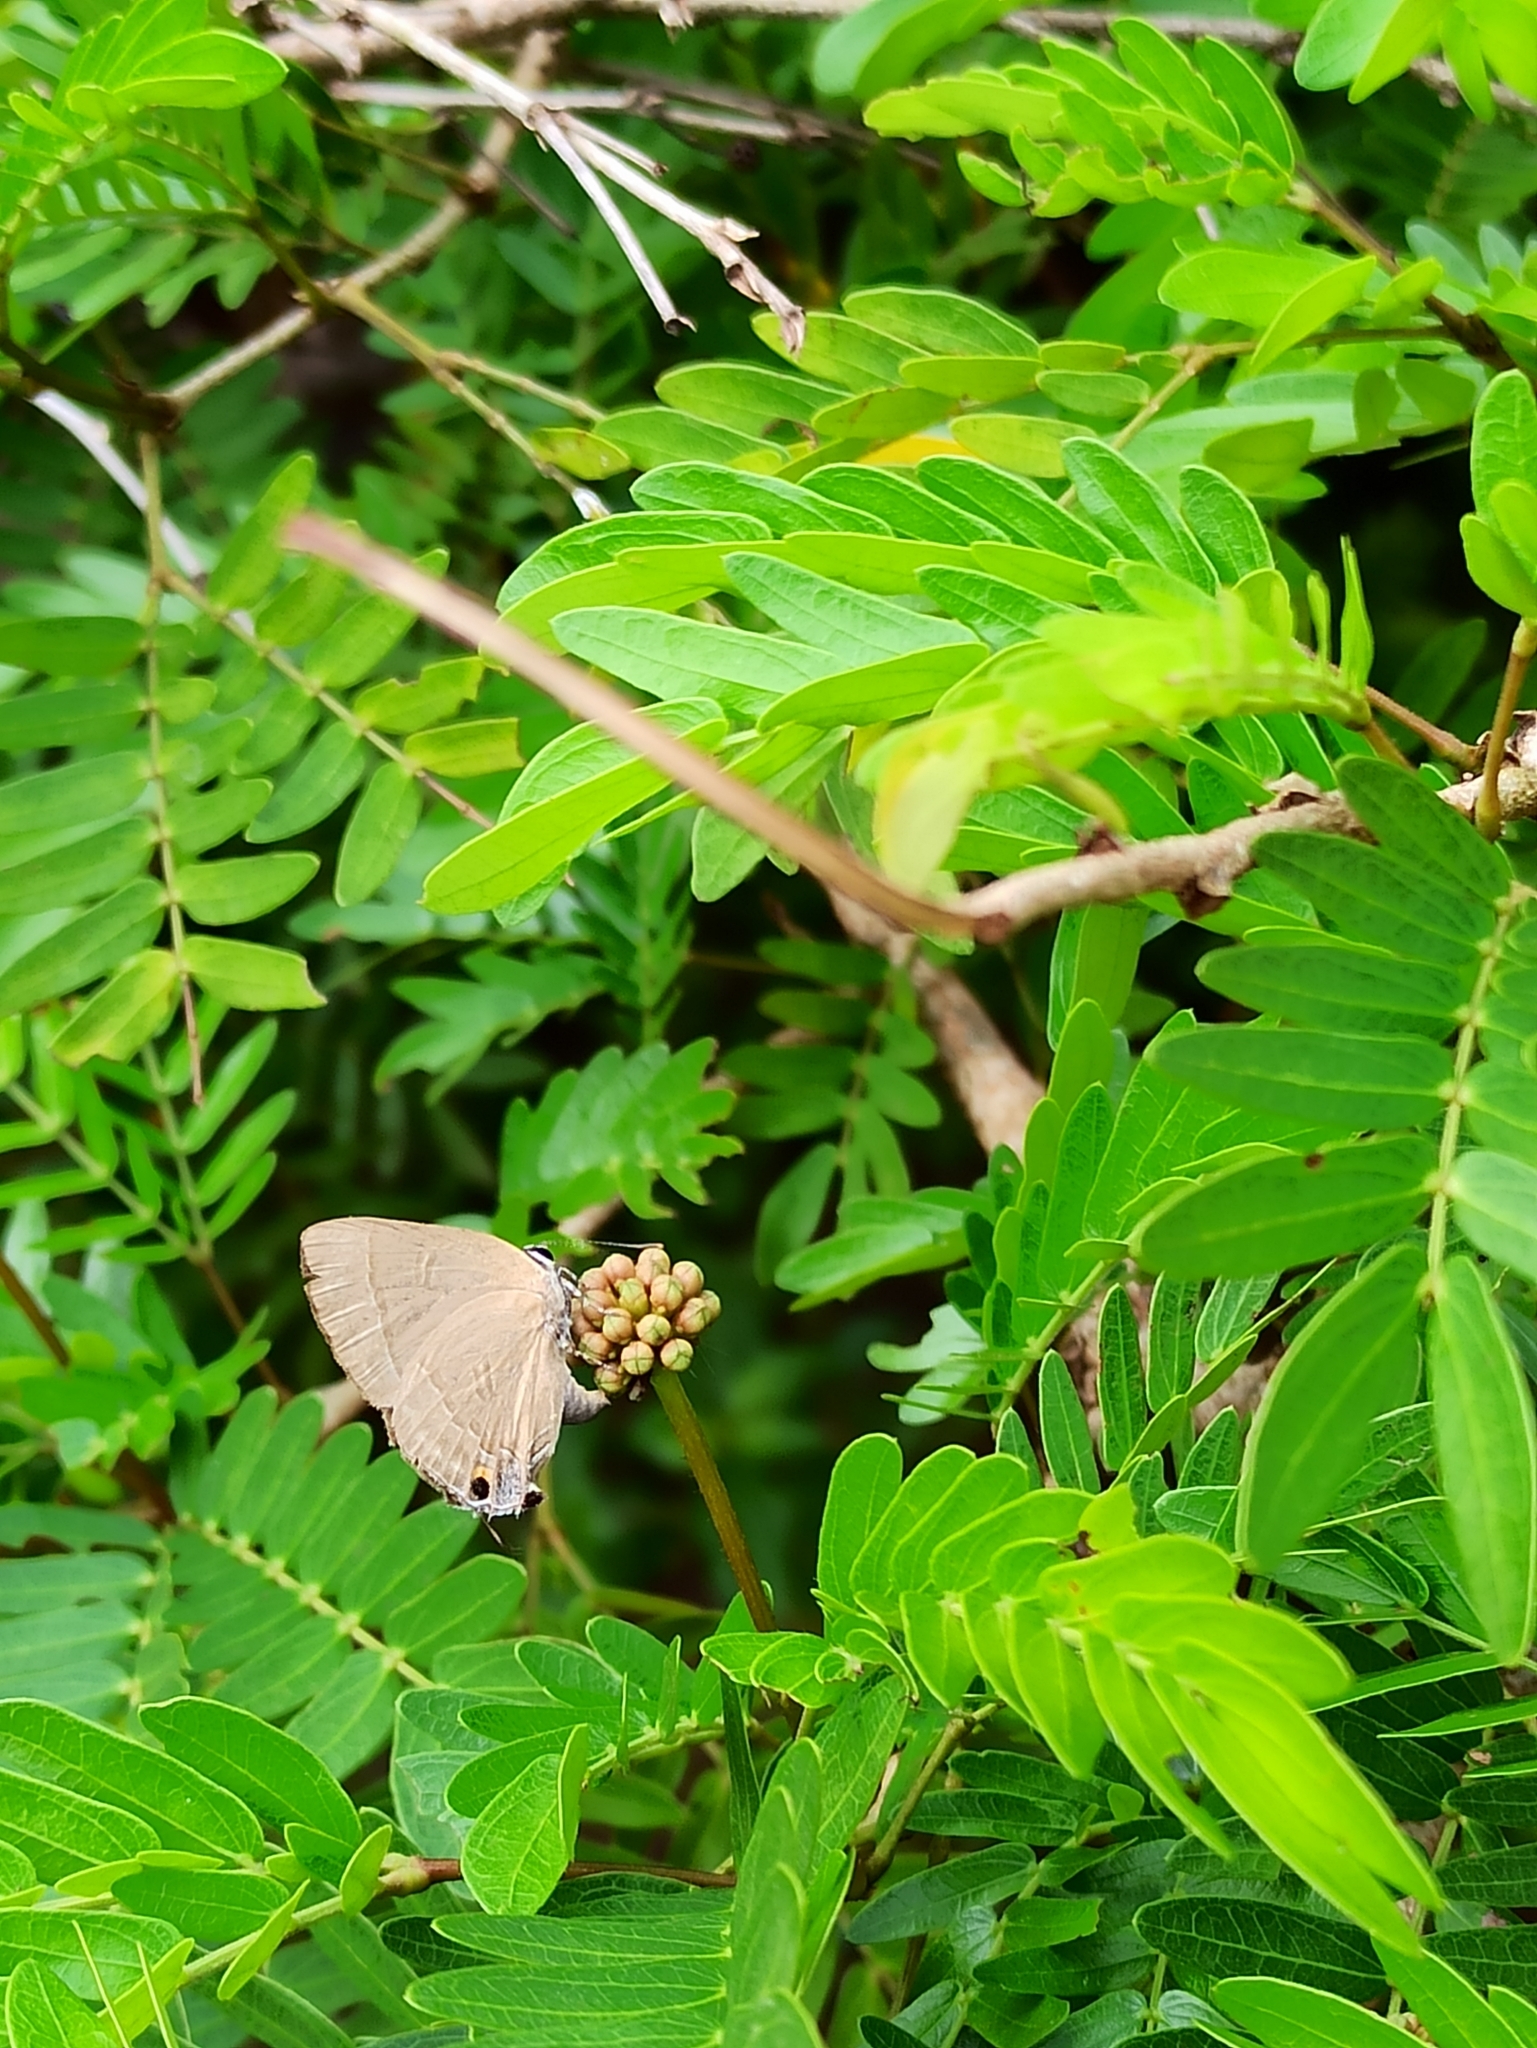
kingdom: Animalia
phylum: Arthropoda
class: Insecta
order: Lepidoptera
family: Lycaenidae
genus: Rapala
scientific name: Rapala manea
